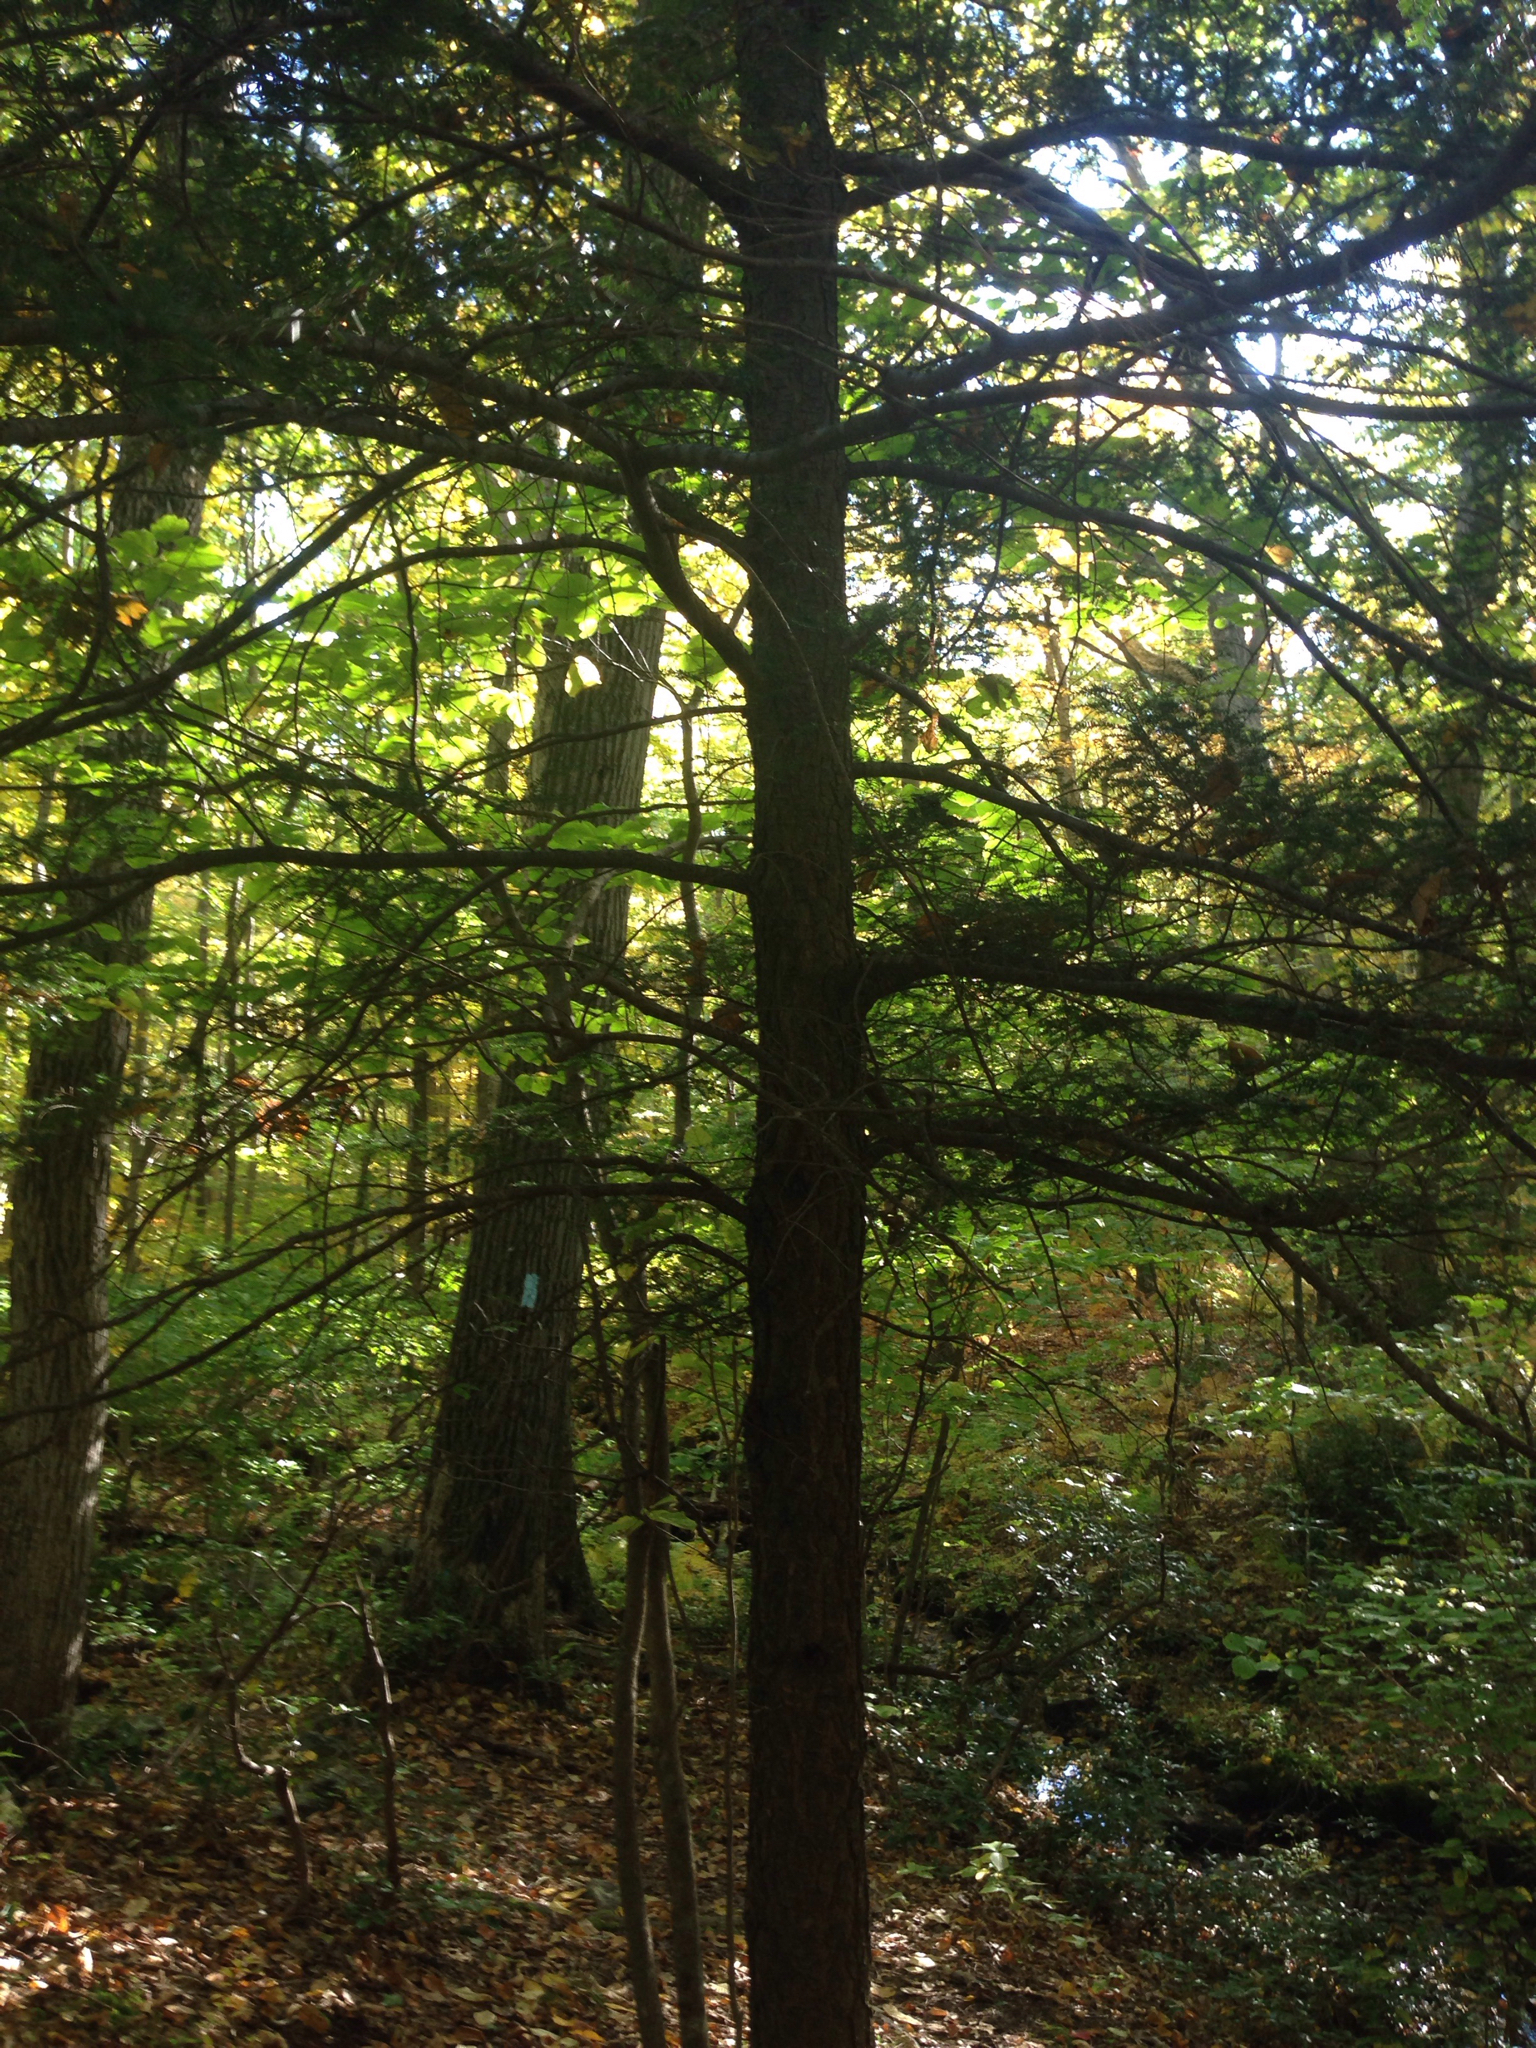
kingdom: Plantae
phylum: Tracheophyta
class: Pinopsida
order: Pinales
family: Pinaceae
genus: Tsuga
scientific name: Tsuga canadensis
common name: Eastern hemlock
